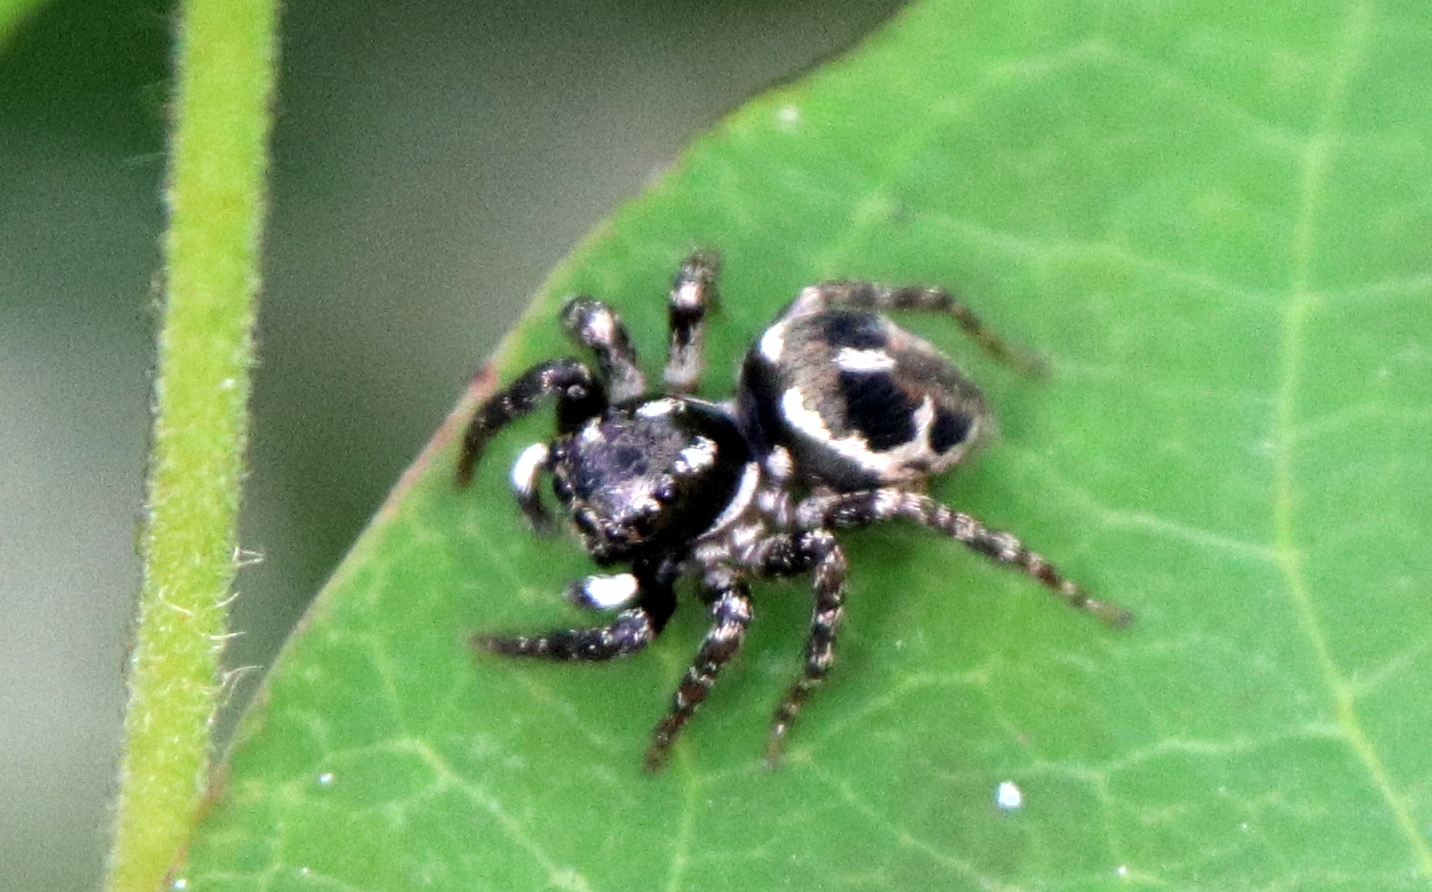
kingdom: Animalia
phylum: Arthropoda
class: Arachnida
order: Araneae
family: Salticidae
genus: Anasaitis
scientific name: Anasaitis canosa
